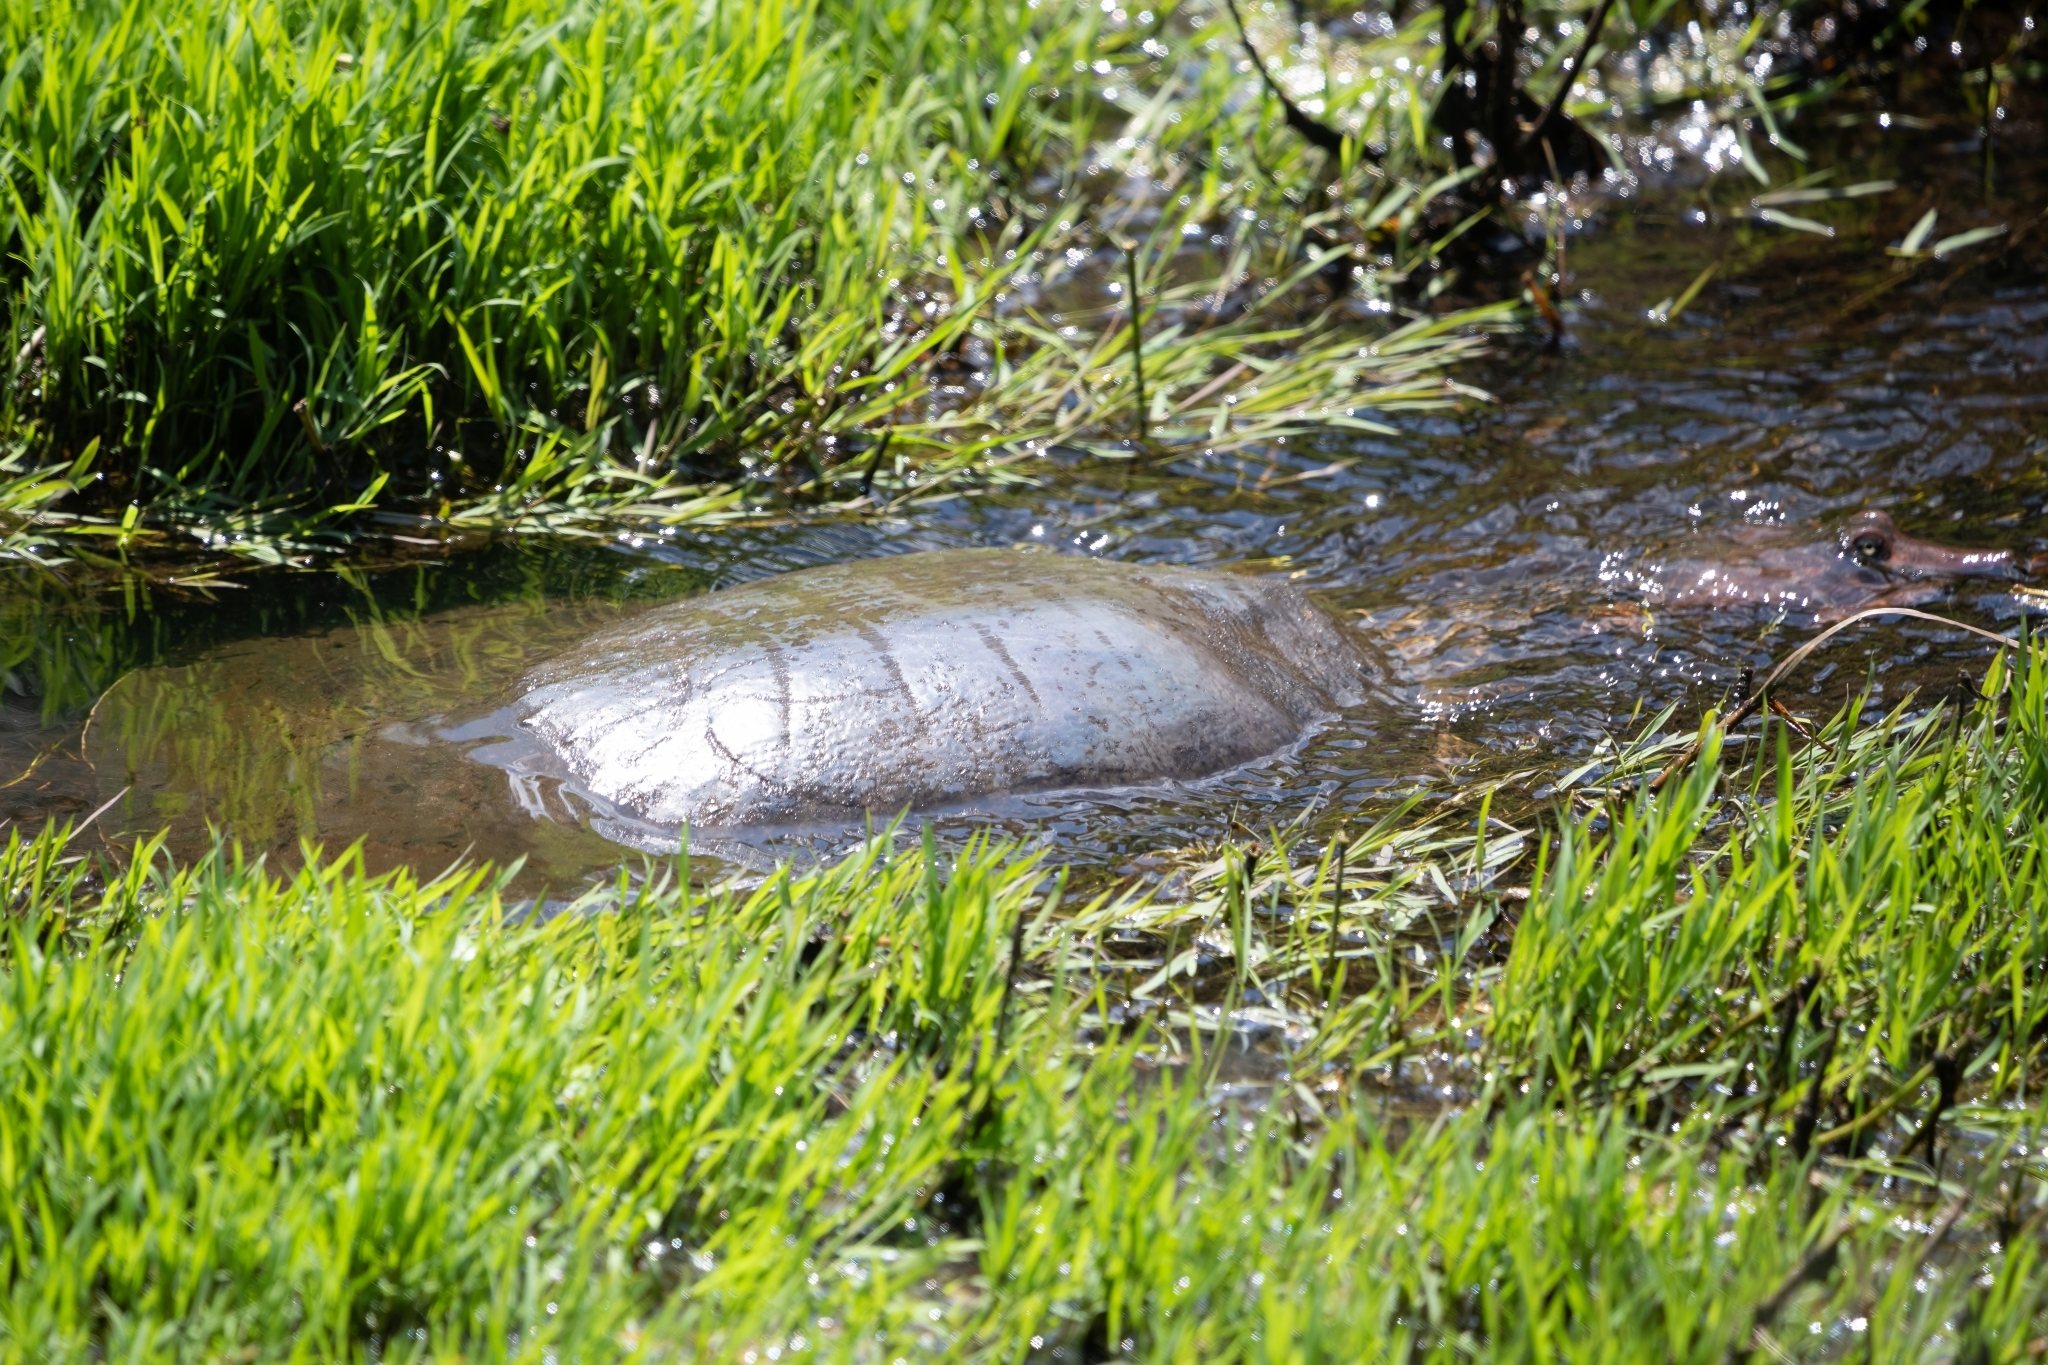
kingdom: Animalia
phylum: Chordata
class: Testudines
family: Trionychidae
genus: Apalone
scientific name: Apalone ferox
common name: Florida softshell turtle
